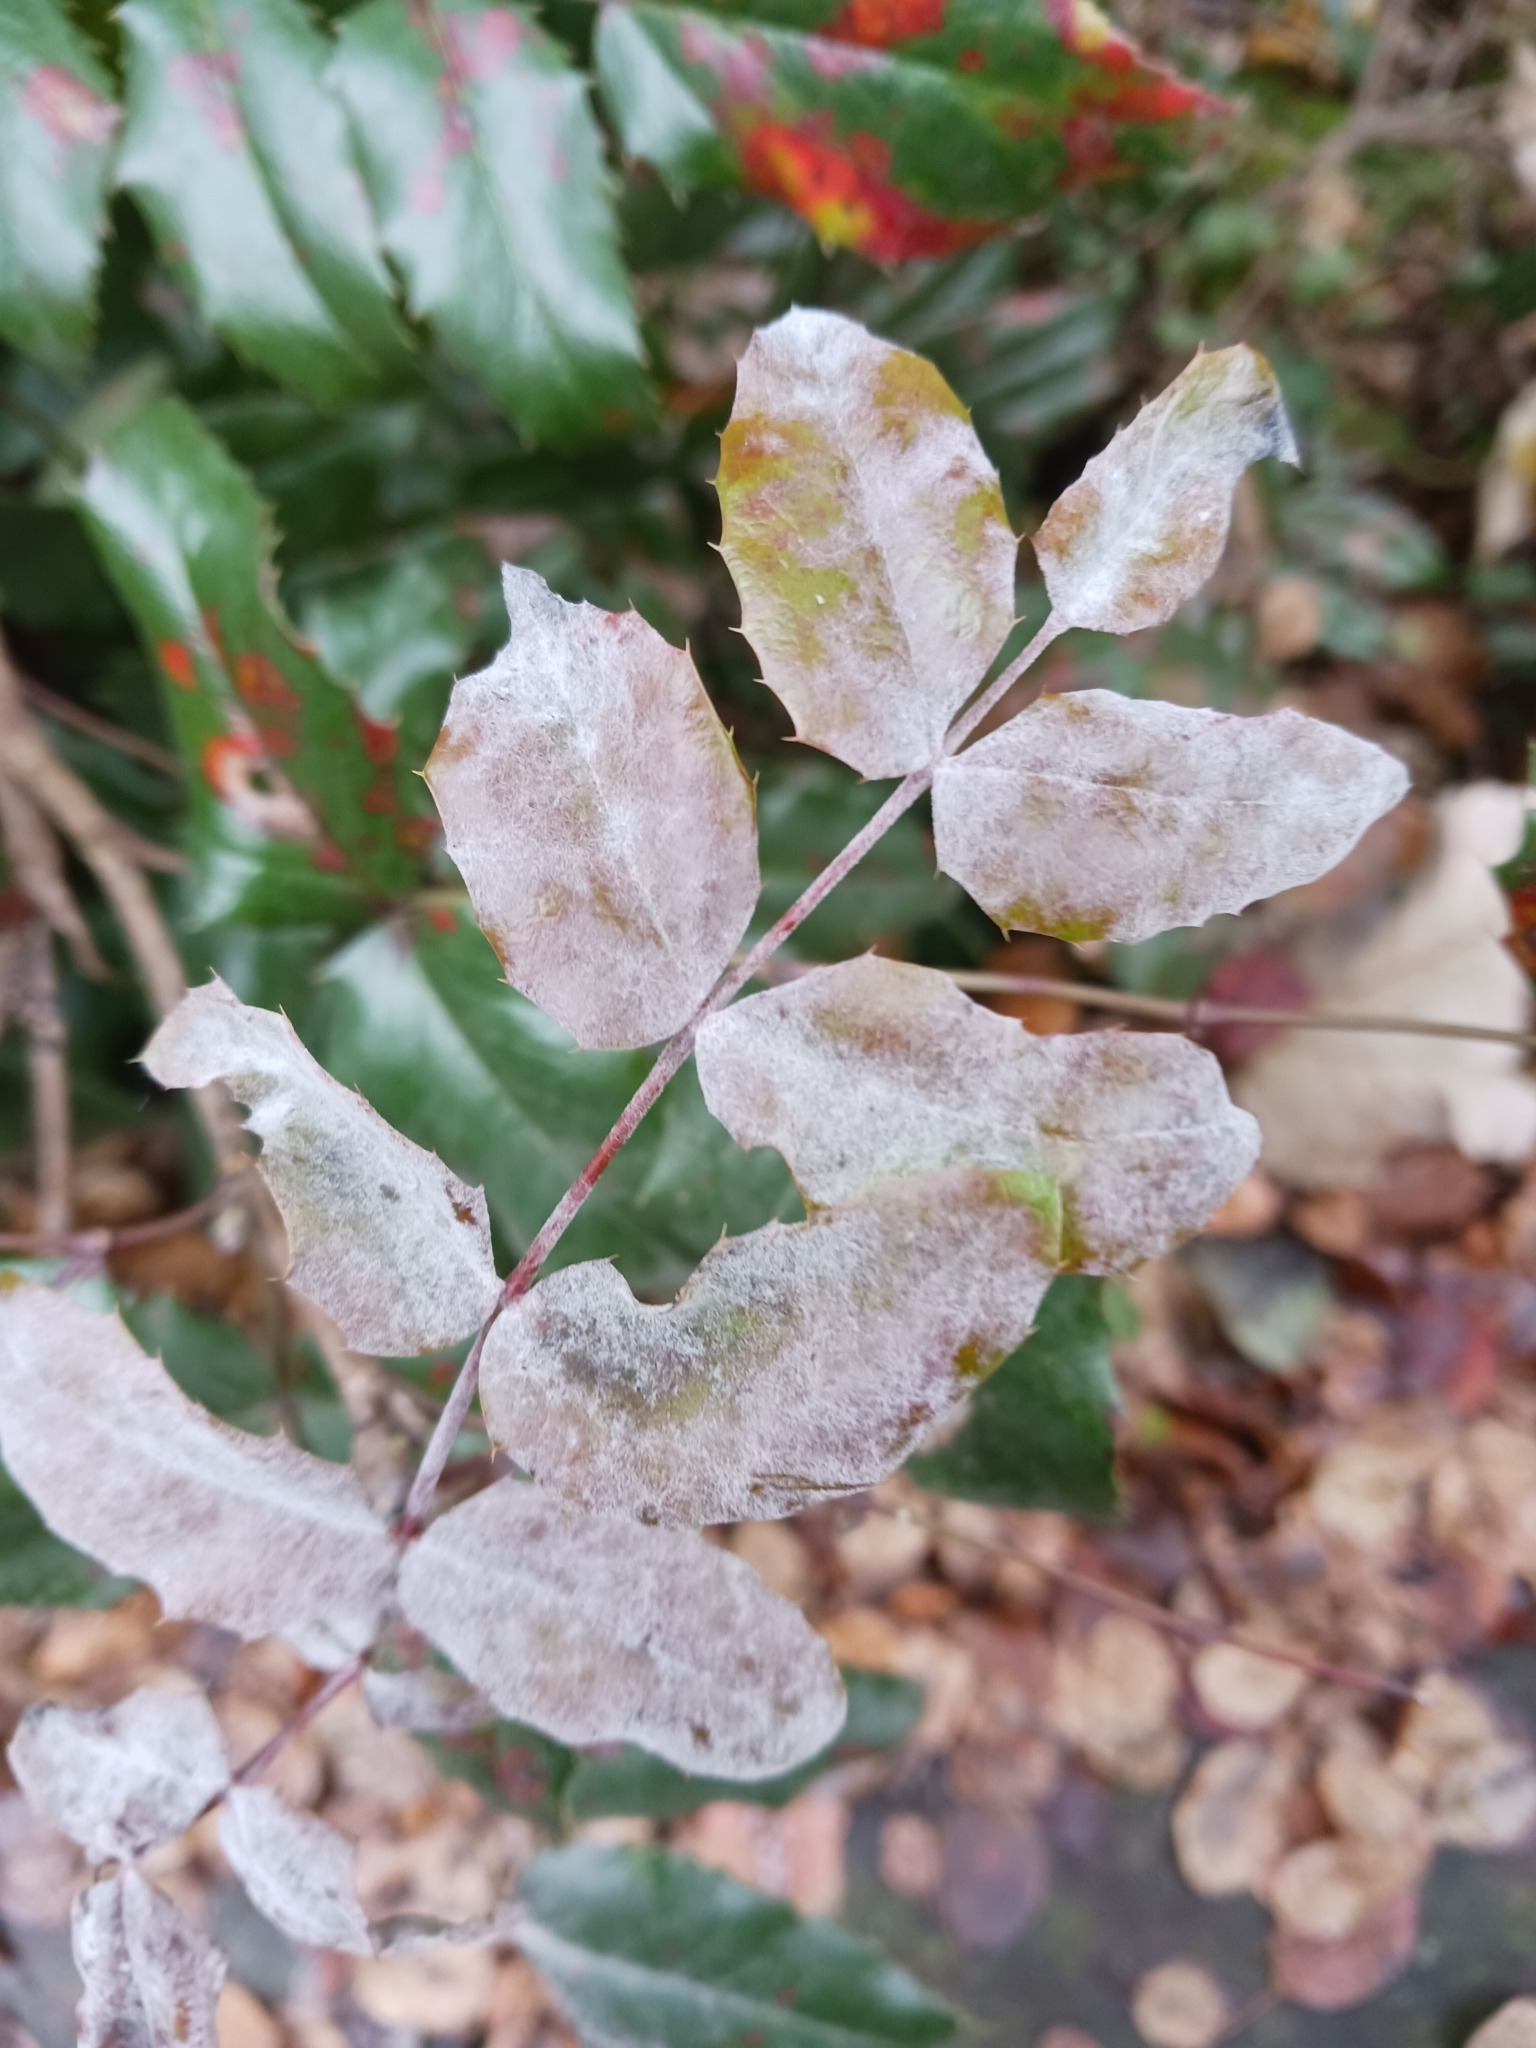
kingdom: Fungi
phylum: Ascomycota
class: Leotiomycetes
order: Helotiales
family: Erysiphaceae
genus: Erysiphe
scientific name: Erysiphe berberidis
